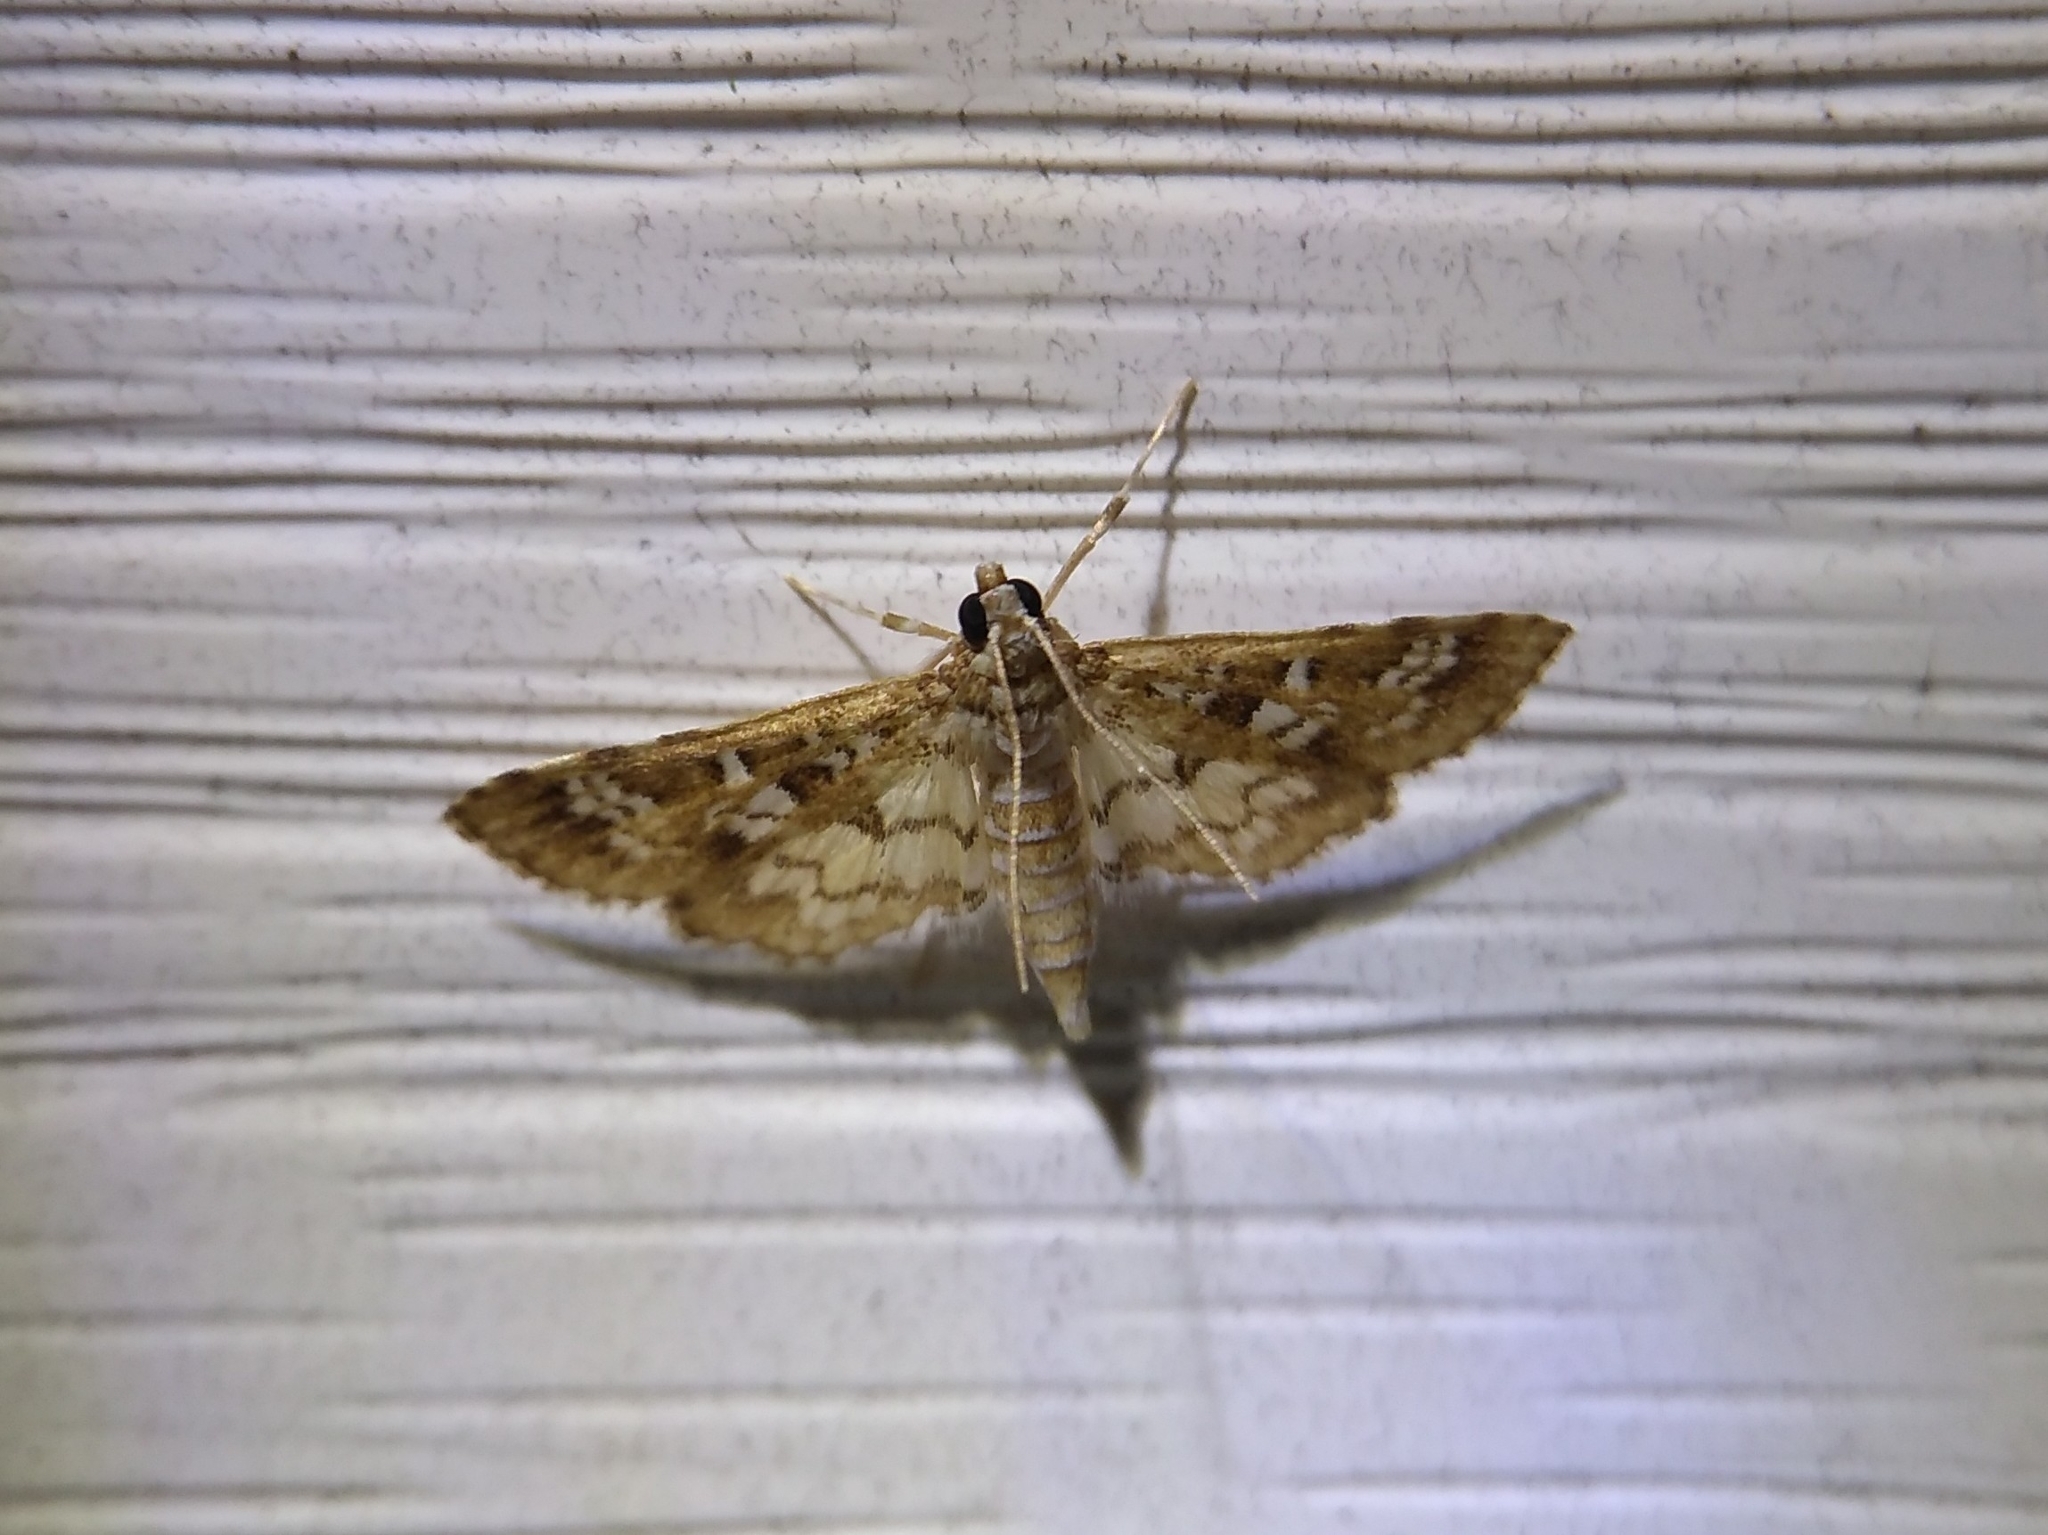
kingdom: Animalia
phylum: Arthropoda
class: Insecta
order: Lepidoptera
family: Crambidae
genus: Samea
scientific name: Samea multiplicalis
